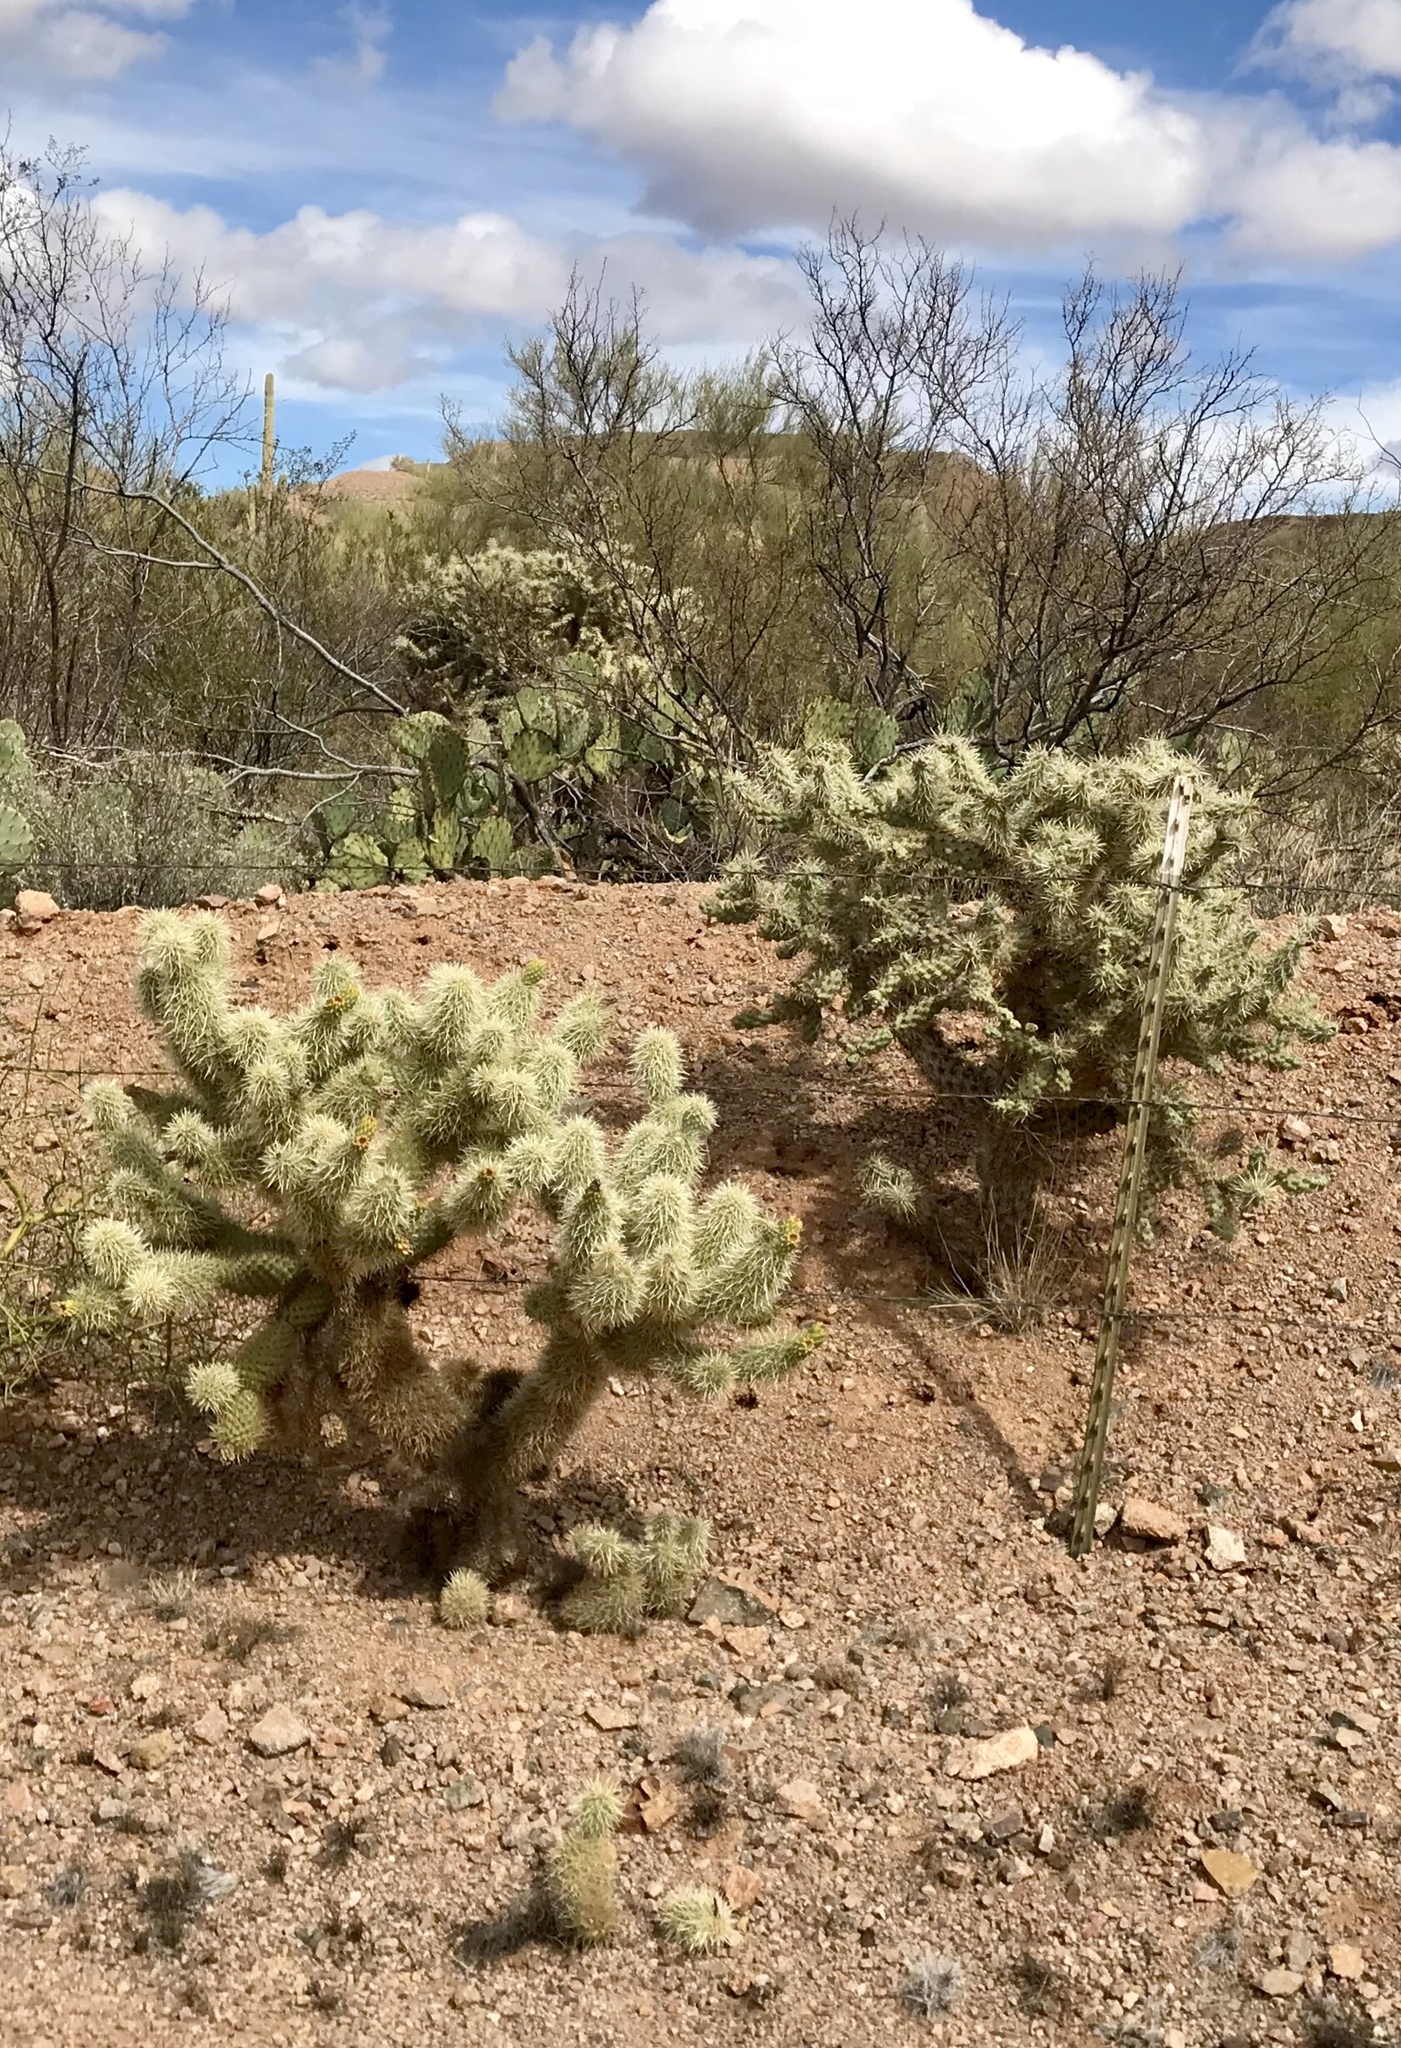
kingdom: Plantae
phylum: Tracheophyta
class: Magnoliopsida
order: Caryophyllales
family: Cactaceae
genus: Cylindropuntia
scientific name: Cylindropuntia fosbergii
